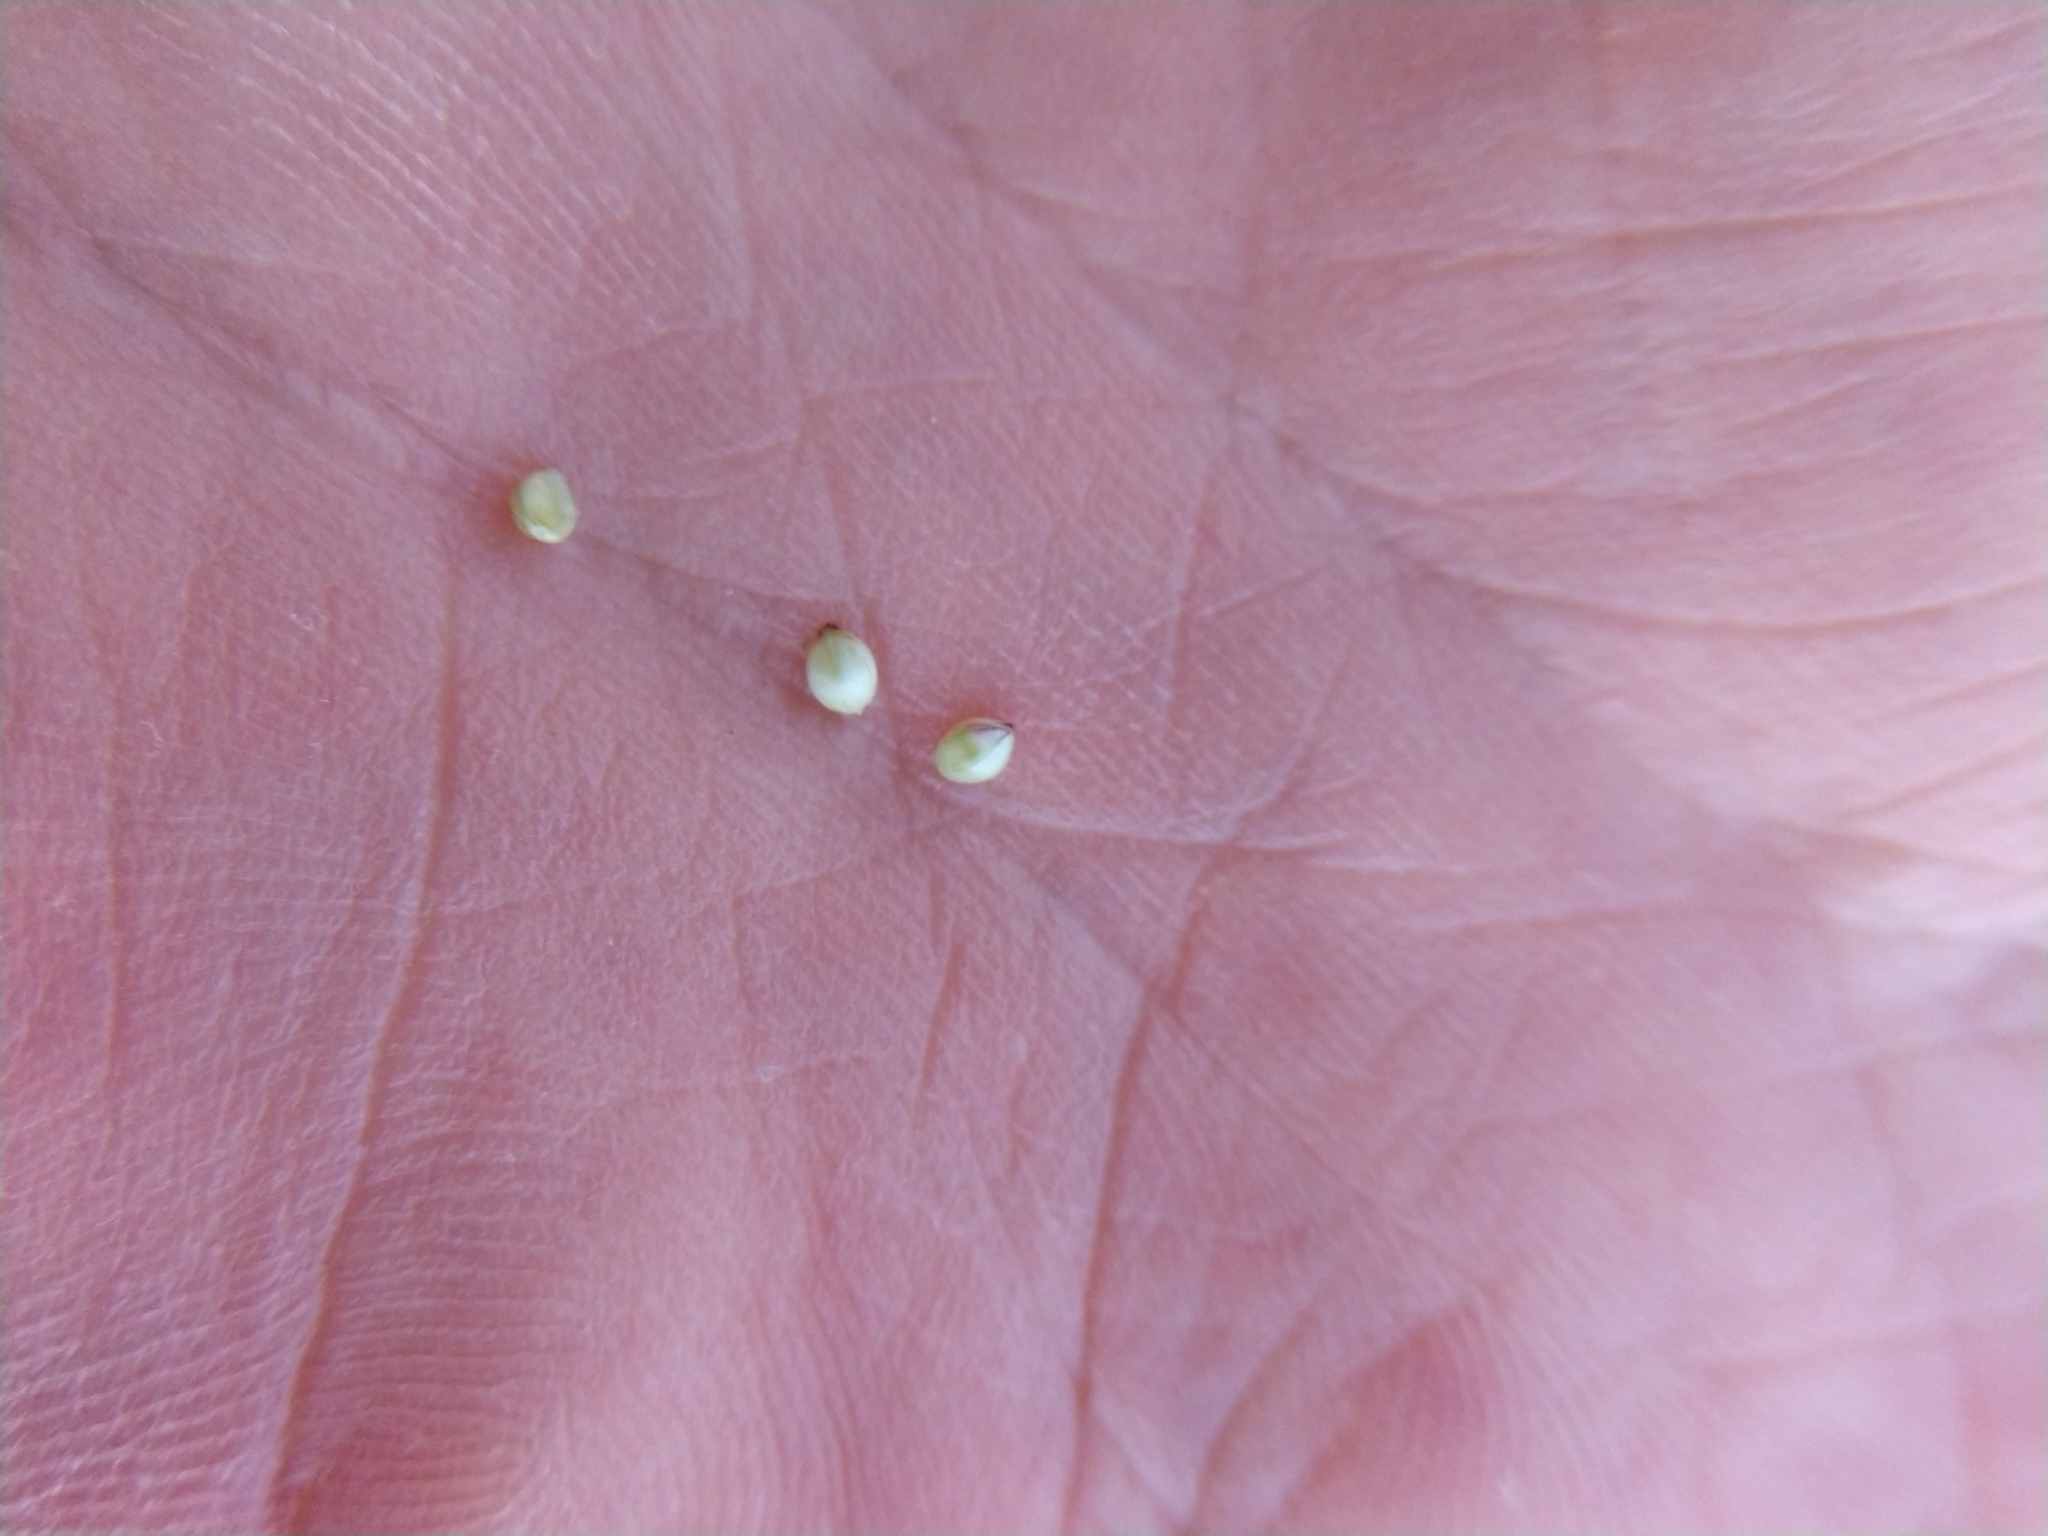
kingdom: Plantae
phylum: Tracheophyta
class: Liliopsida
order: Poales
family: Poaceae
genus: Paspalum
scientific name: Paspalum setaceum
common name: Slender paspalum
